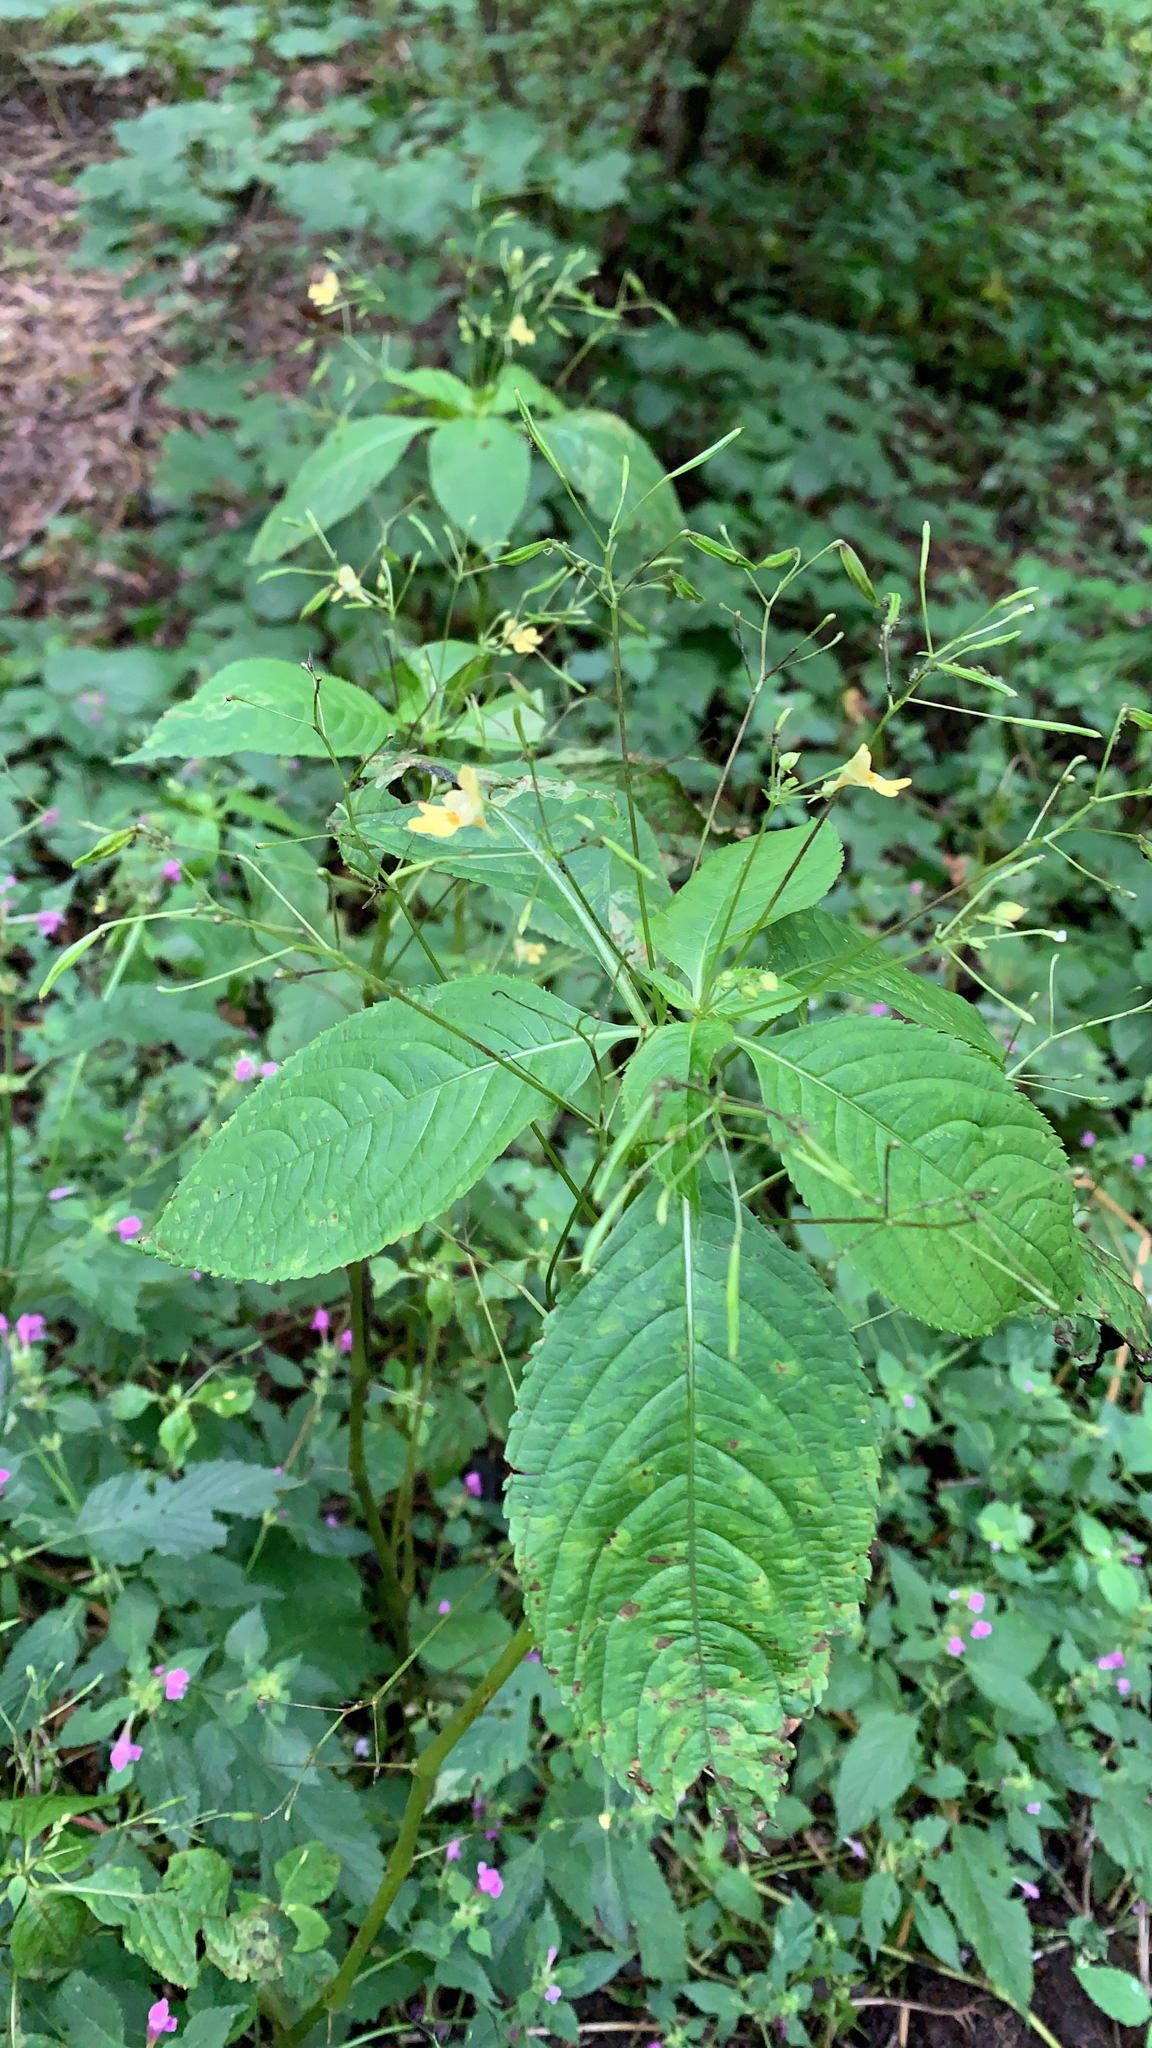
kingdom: Plantae
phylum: Tracheophyta
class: Magnoliopsida
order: Ericales
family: Balsaminaceae
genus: Impatiens
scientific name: Impatiens parviflora
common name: Small balsam
